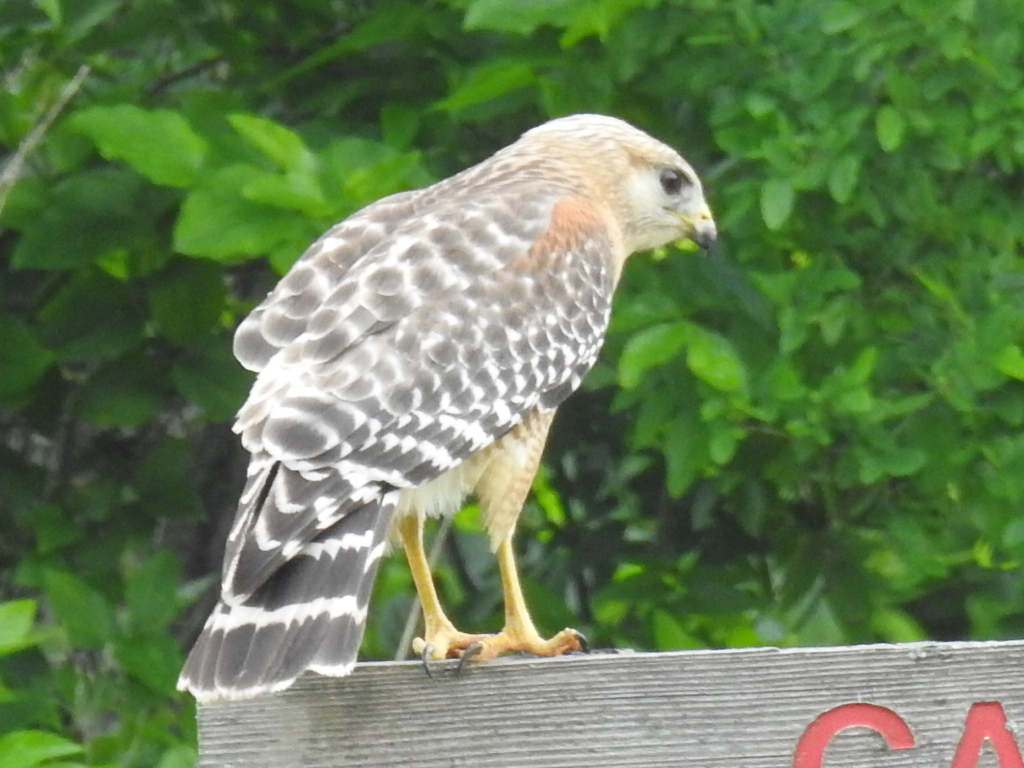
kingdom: Animalia
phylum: Chordata
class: Aves
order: Accipitriformes
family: Accipitridae
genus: Buteo
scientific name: Buteo lineatus
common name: Red-shouldered hawk
